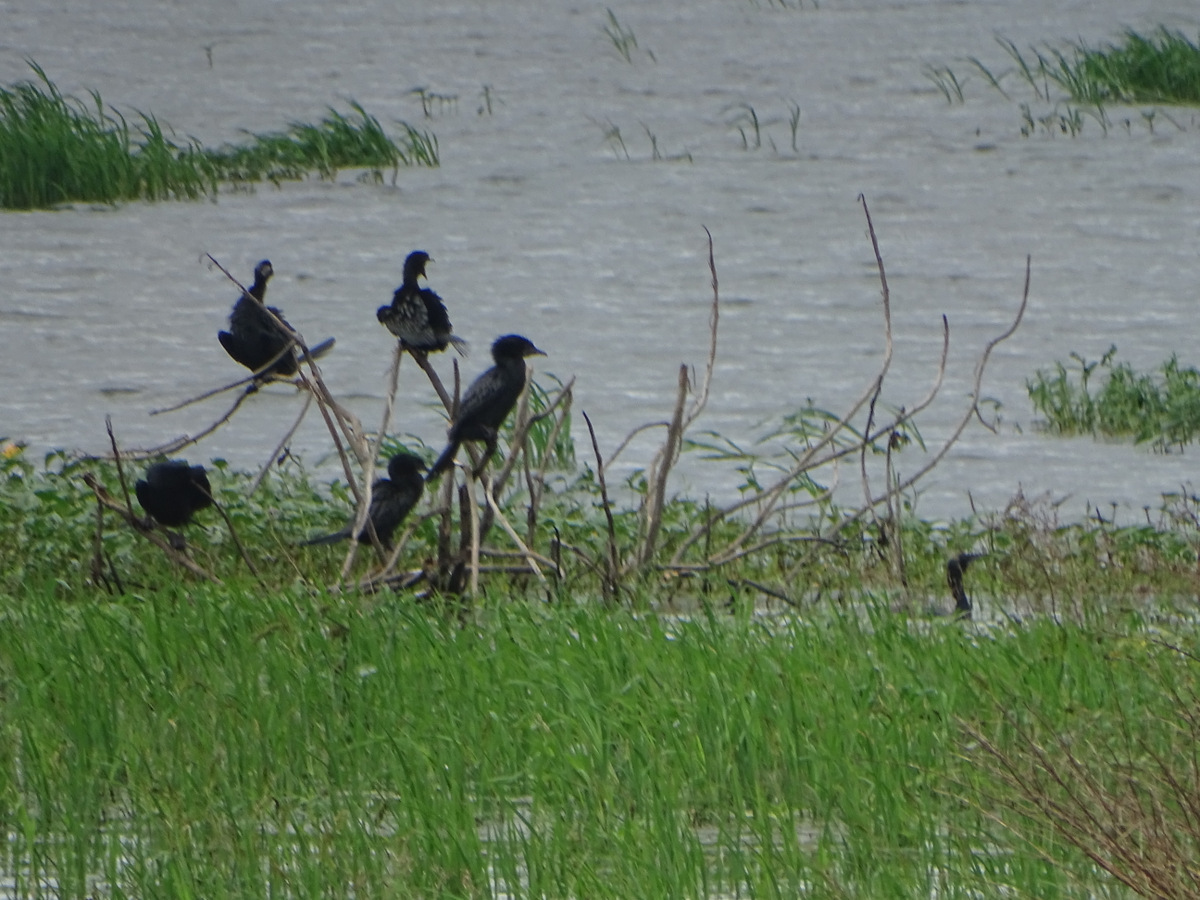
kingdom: Animalia
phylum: Chordata
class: Aves
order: Suliformes
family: Phalacrocoracidae
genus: Microcarbo
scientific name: Microcarbo niger
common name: Little cormorant
